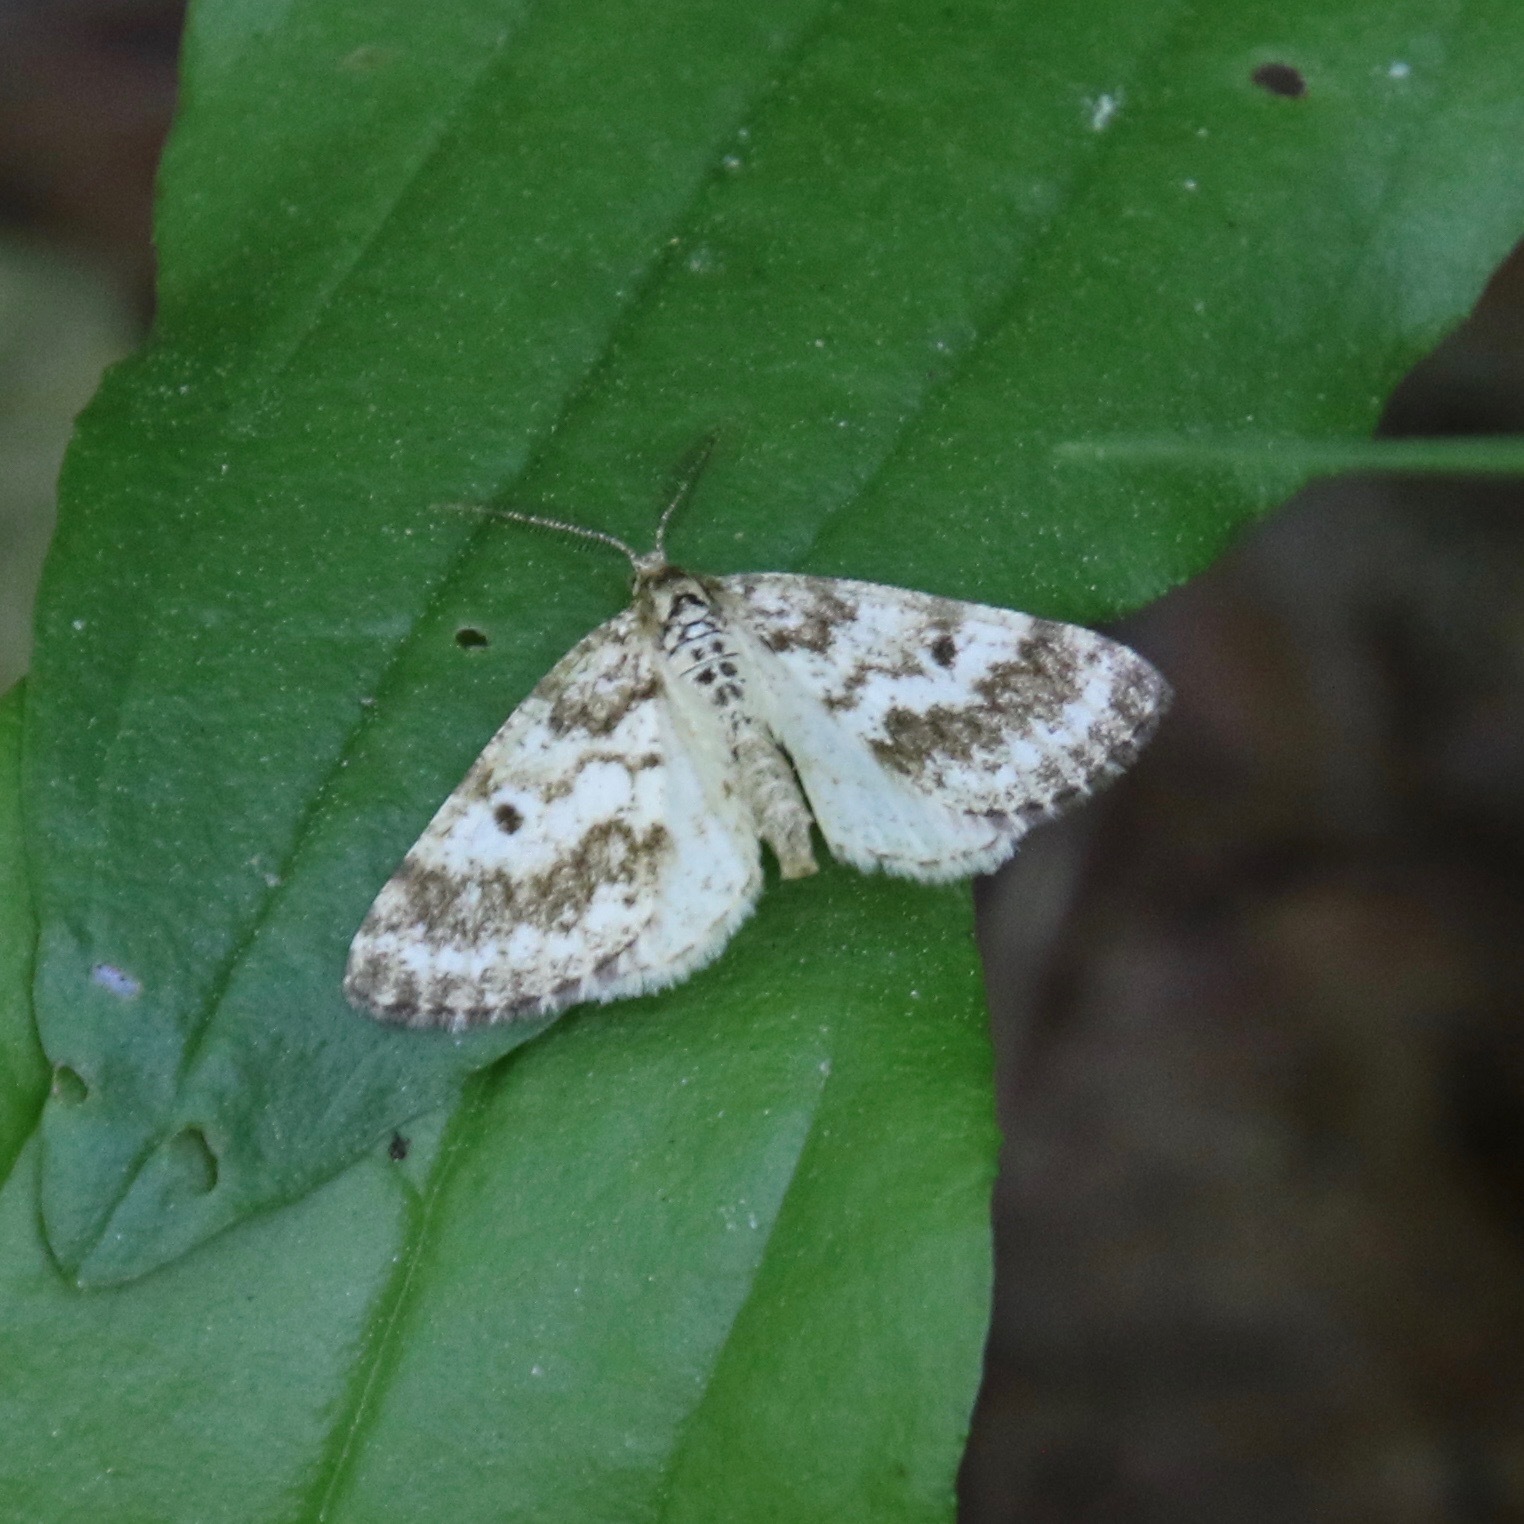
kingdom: Animalia
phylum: Arthropoda
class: Insecta
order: Lepidoptera
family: Geometridae
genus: Eufidonia
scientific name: Eufidonia notataria
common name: Powder moth
